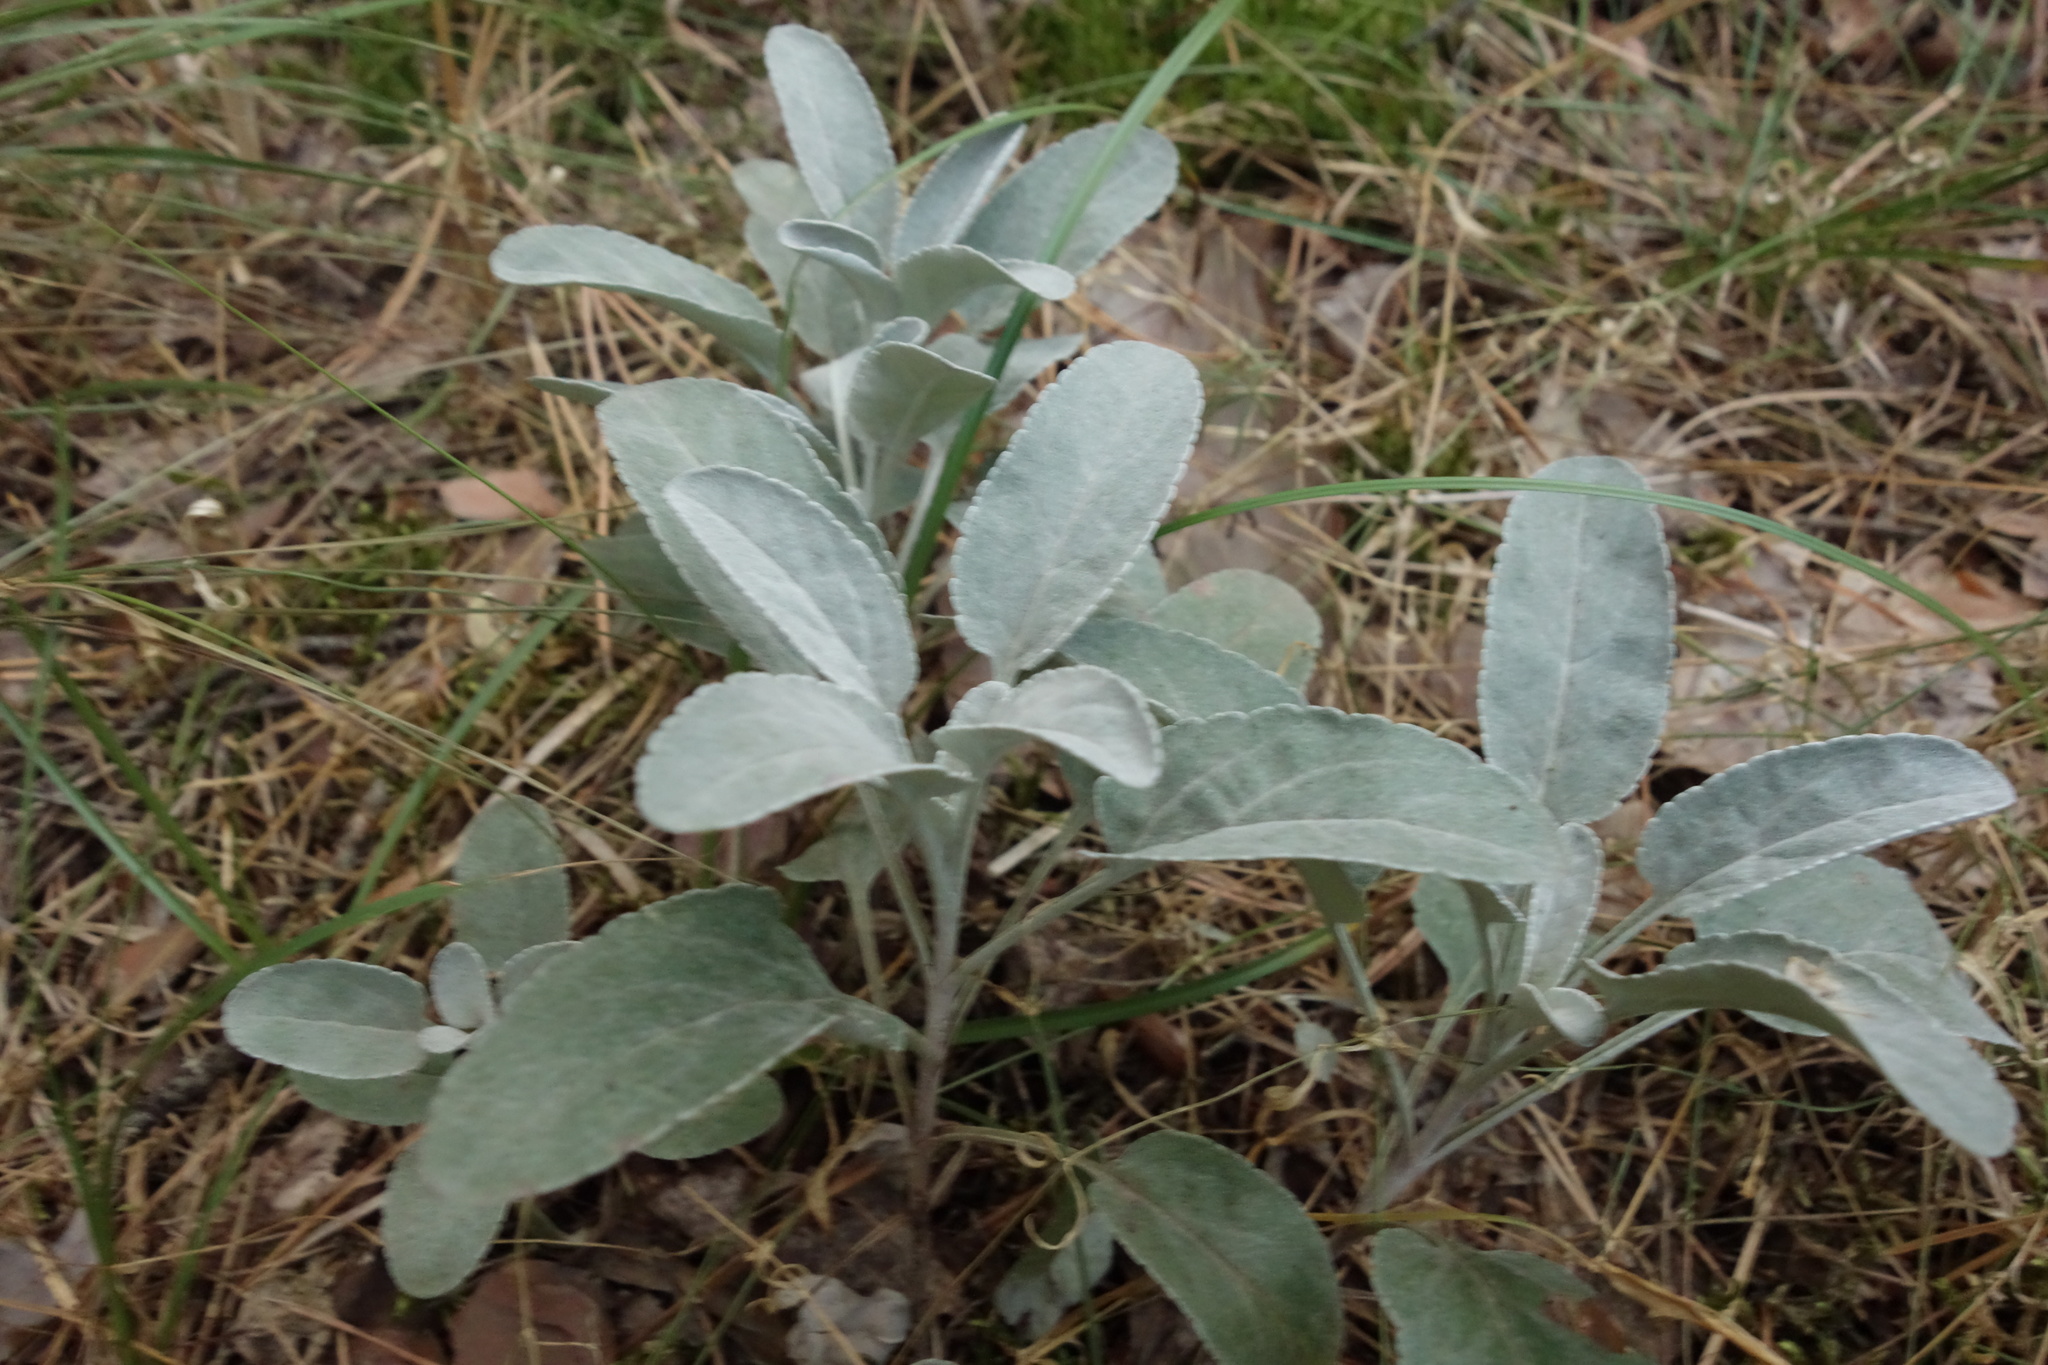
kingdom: Plantae
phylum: Tracheophyta
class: Magnoliopsida
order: Lamiales
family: Plantaginaceae
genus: Veronica
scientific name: Veronica incana
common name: Silver speedwell
